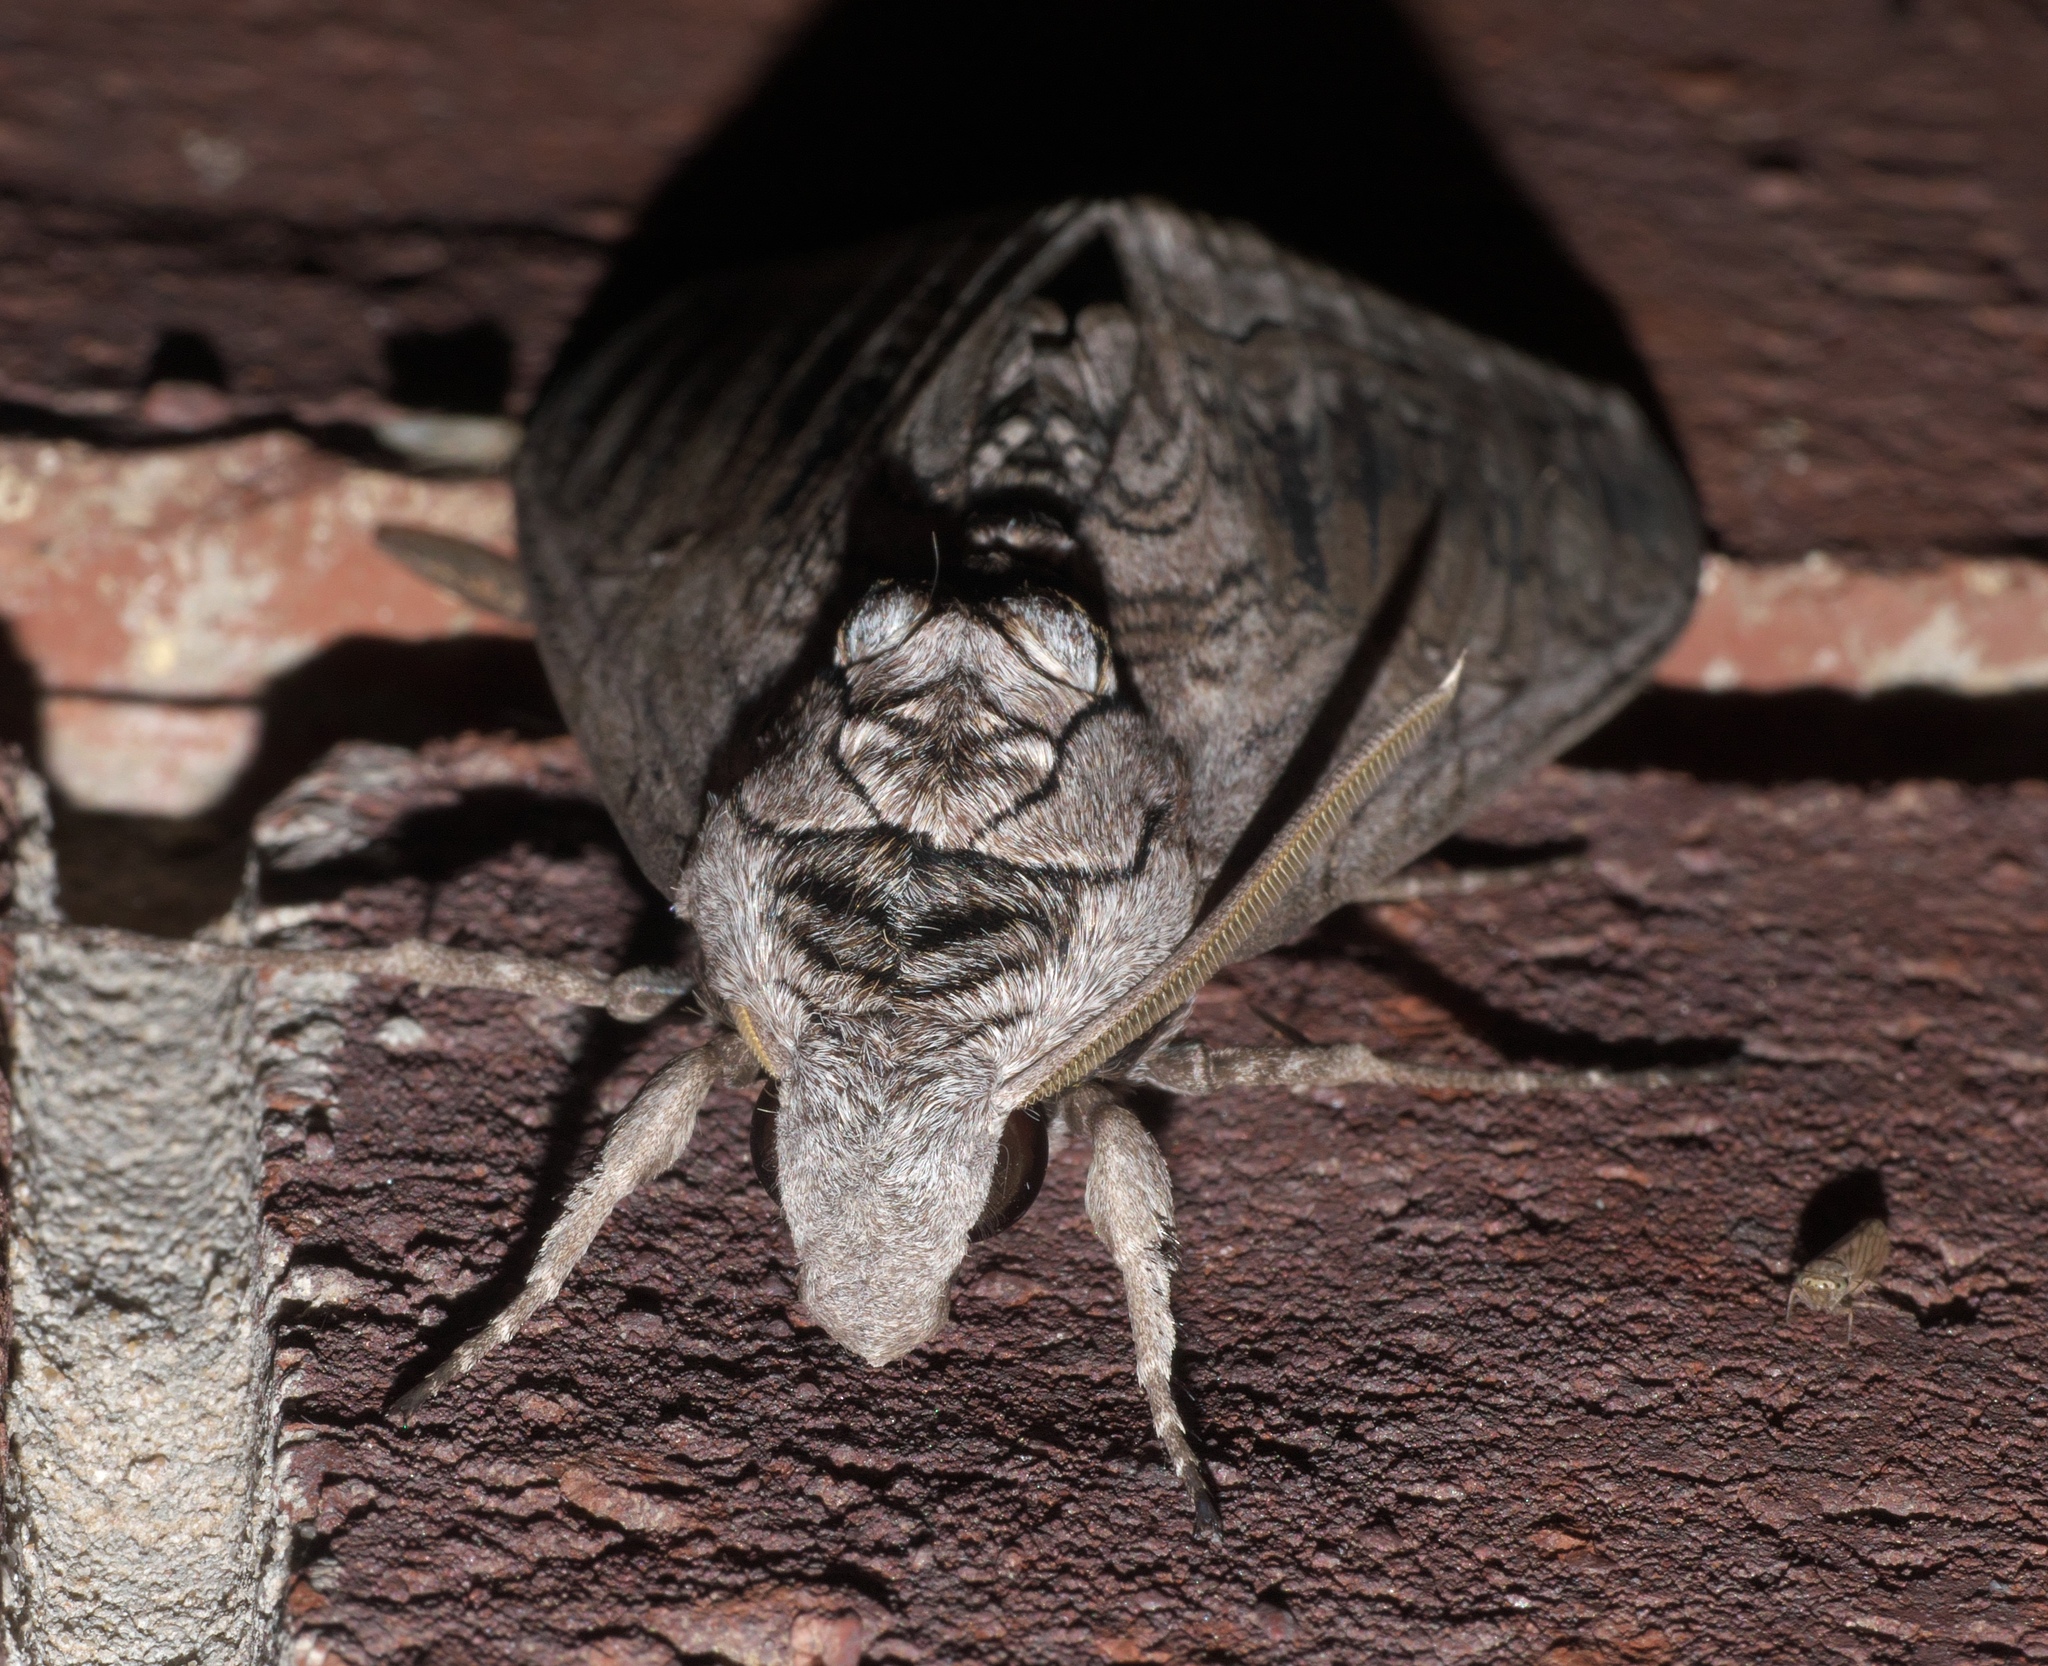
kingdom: Animalia
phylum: Arthropoda
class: Insecta
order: Lepidoptera
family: Sphingidae
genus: Manduca
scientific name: Manduca quinquemaculatus
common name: Five-spotted hawk-moth
